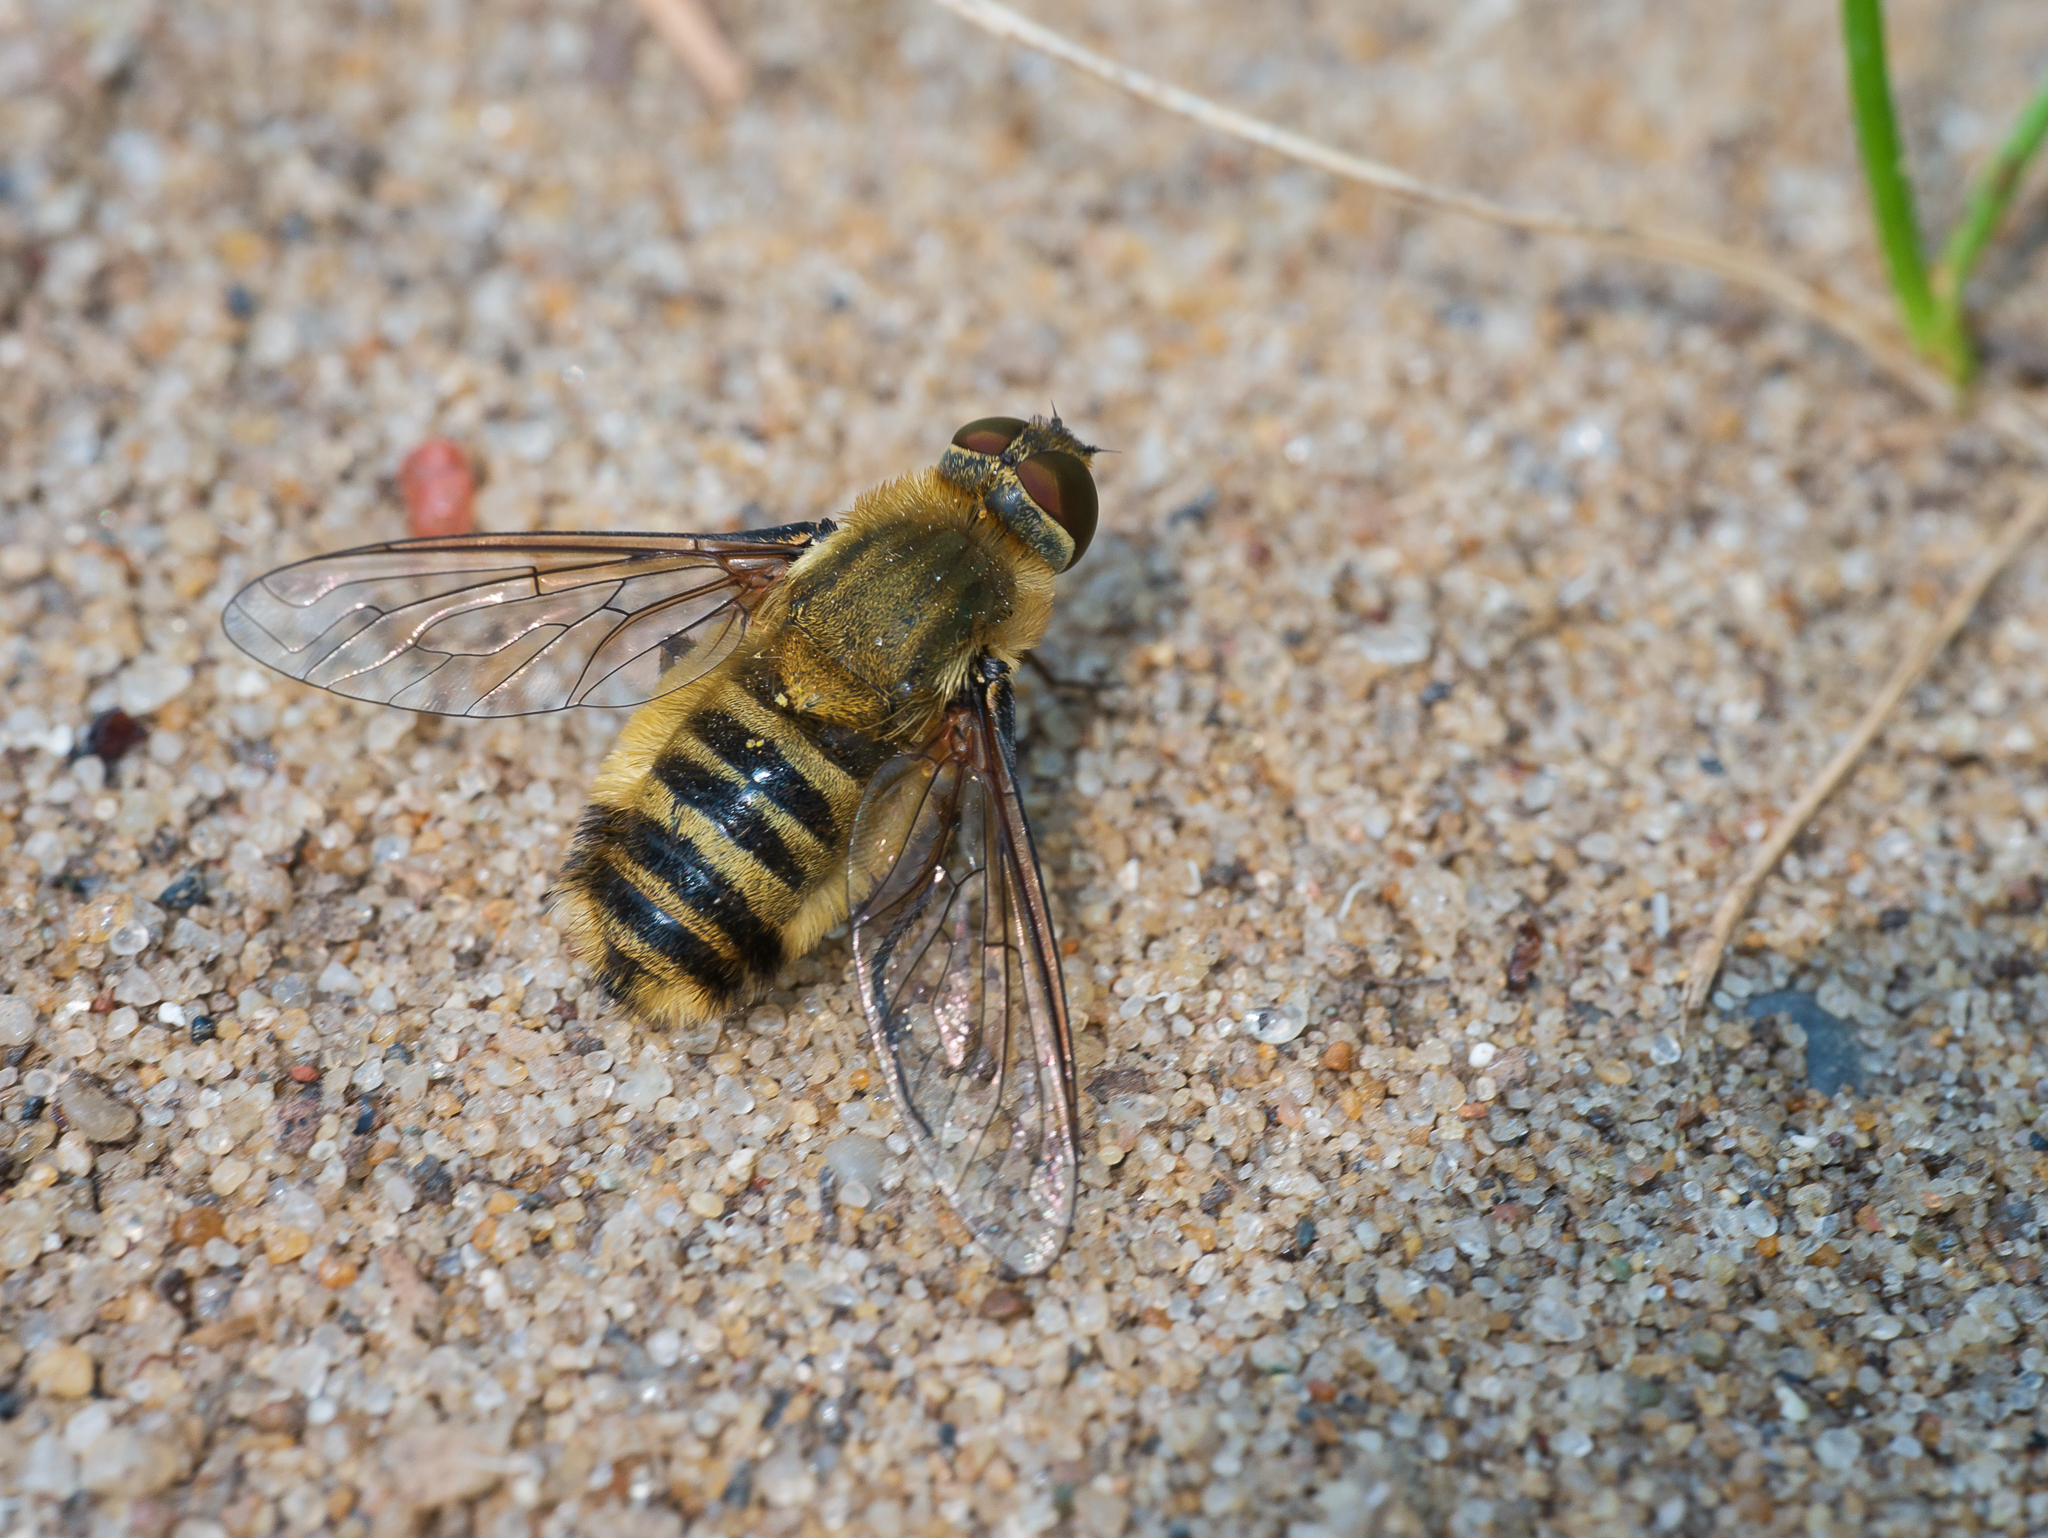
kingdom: Animalia
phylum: Arthropoda
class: Insecta
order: Diptera
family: Bombyliidae
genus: Villa
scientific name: Villa hottentotta
